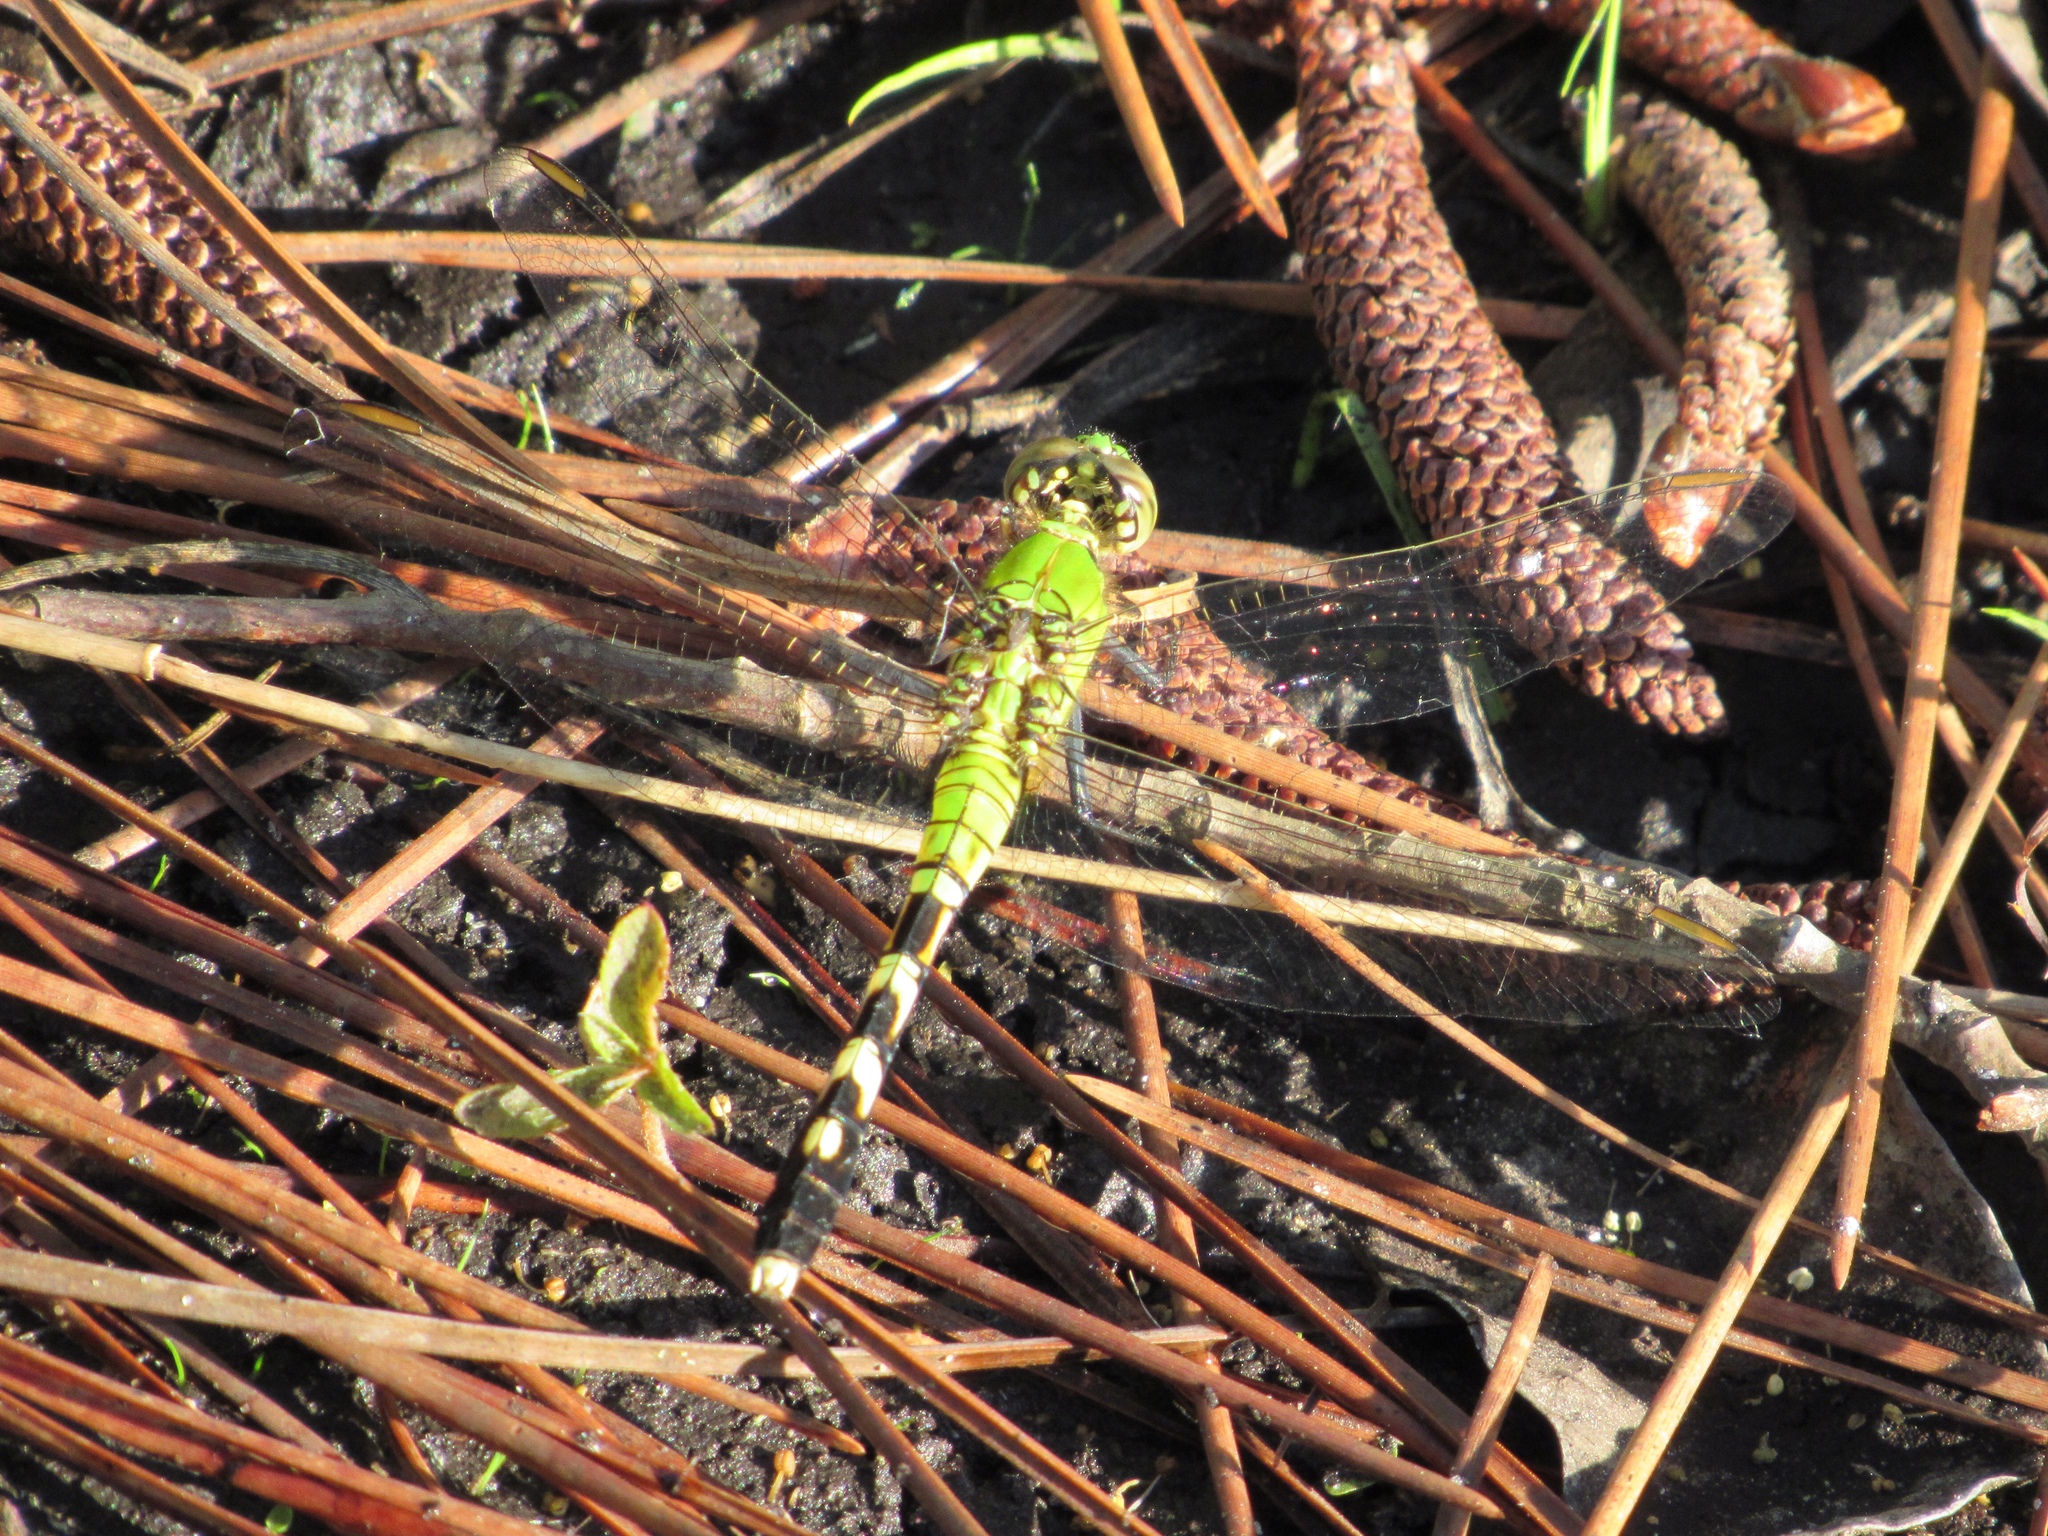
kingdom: Animalia
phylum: Arthropoda
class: Insecta
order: Odonata
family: Libellulidae
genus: Erythemis
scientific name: Erythemis simplicicollis
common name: Eastern pondhawk
